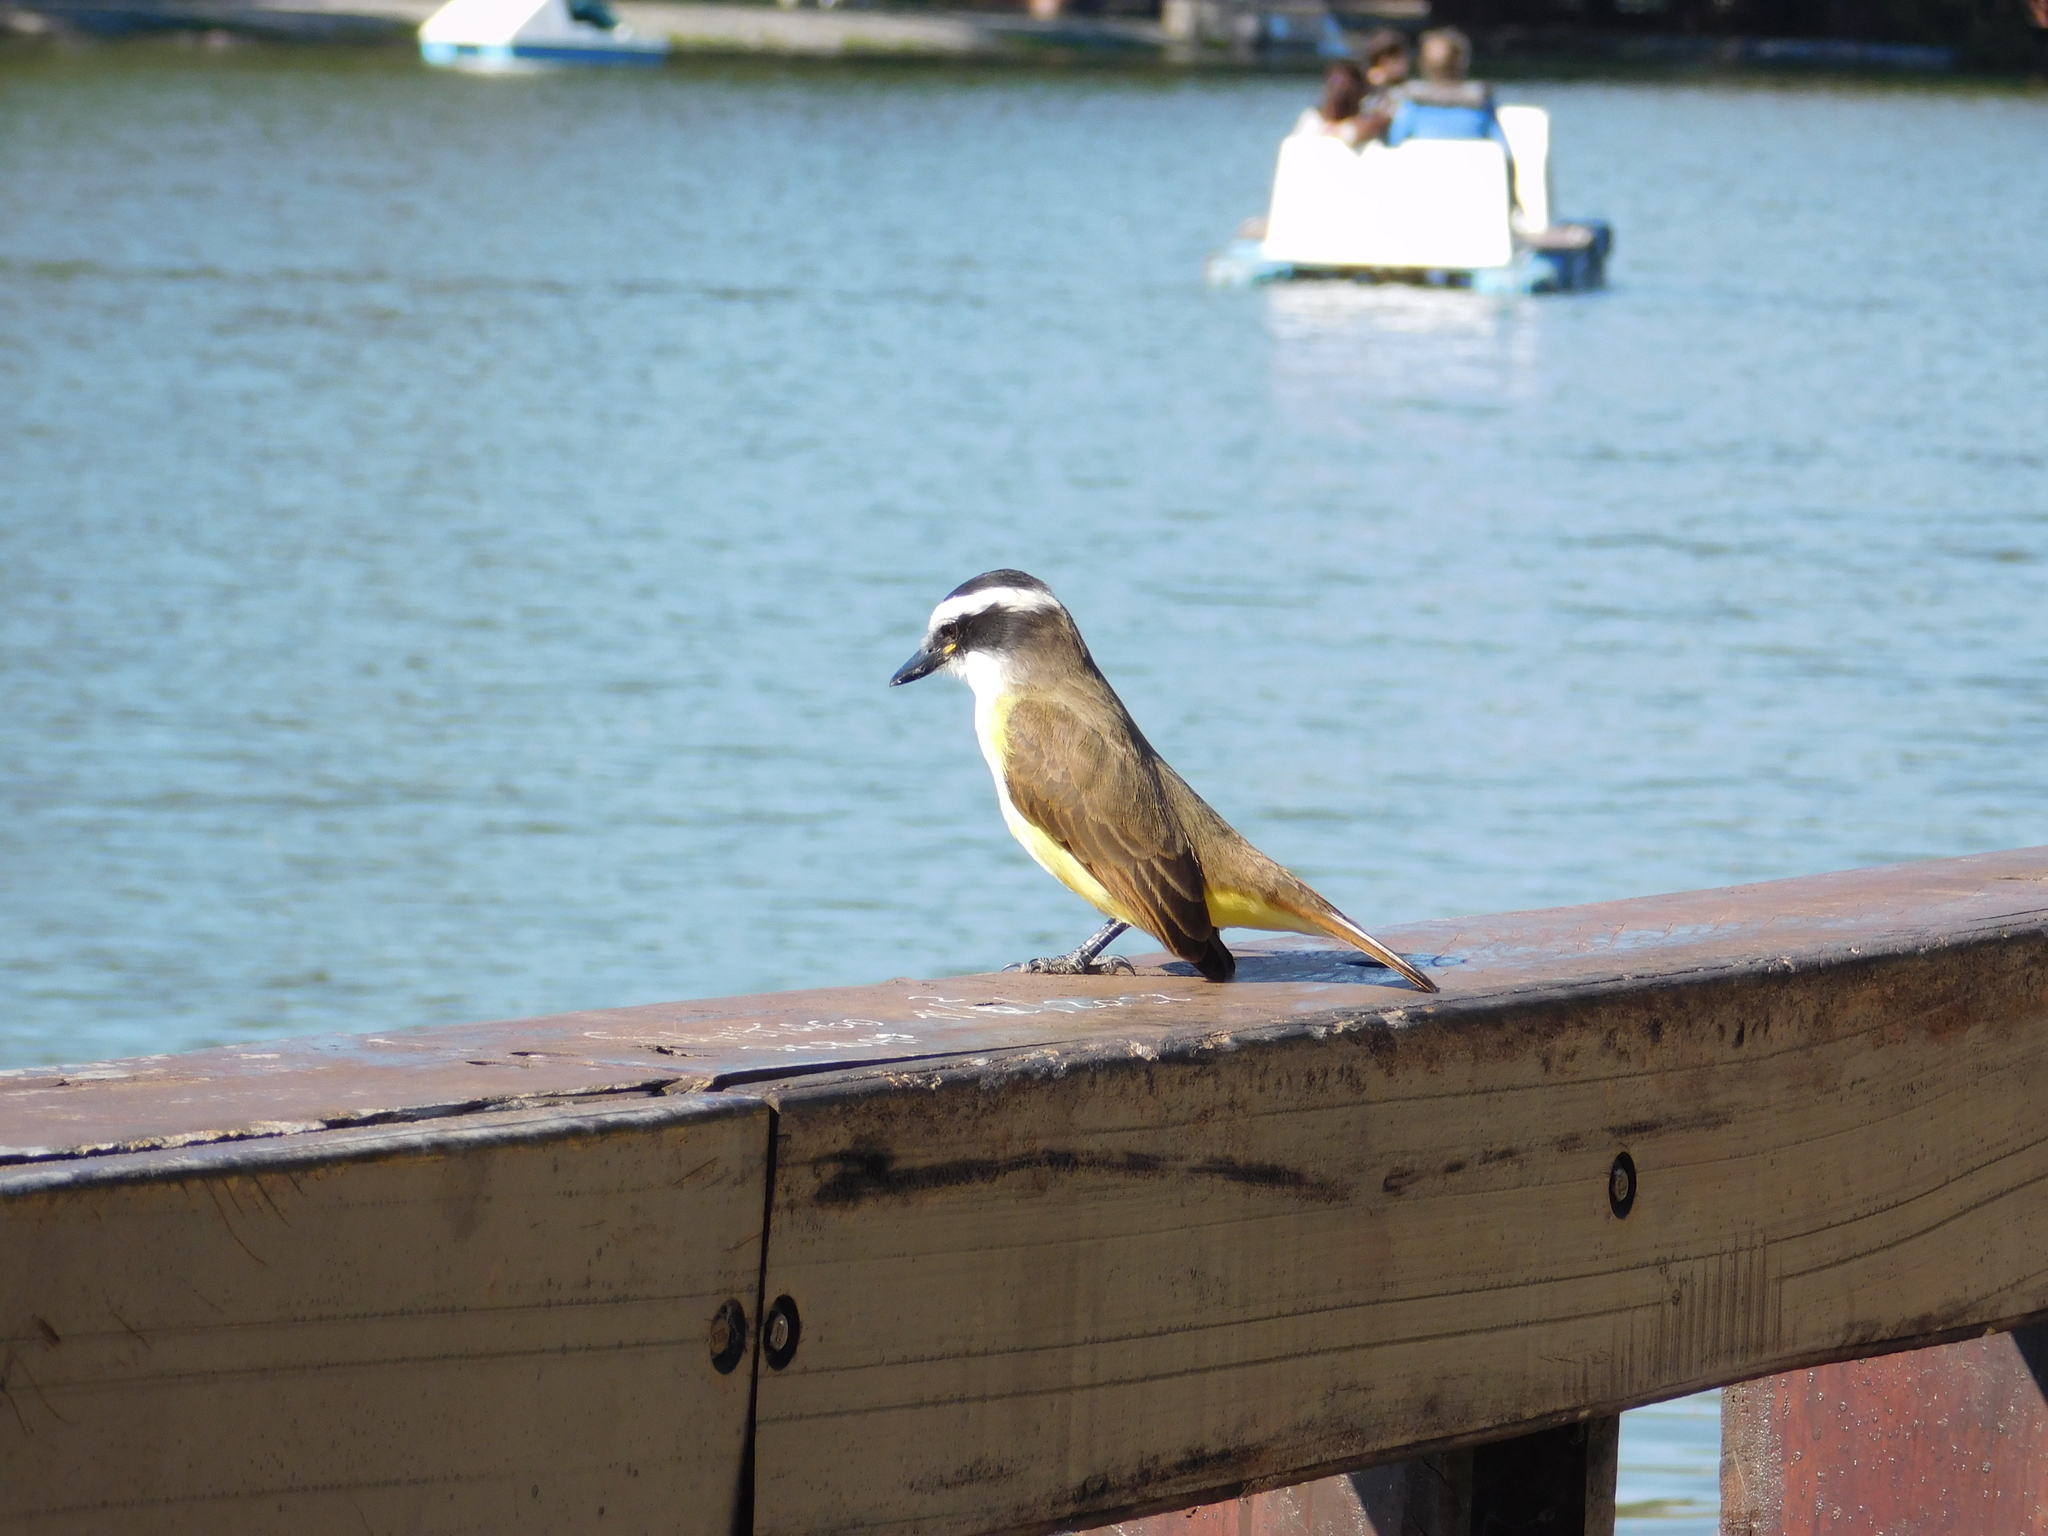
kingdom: Animalia
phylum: Chordata
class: Aves
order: Passeriformes
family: Tyrannidae
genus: Pitangus
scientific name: Pitangus sulphuratus
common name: Great kiskadee
